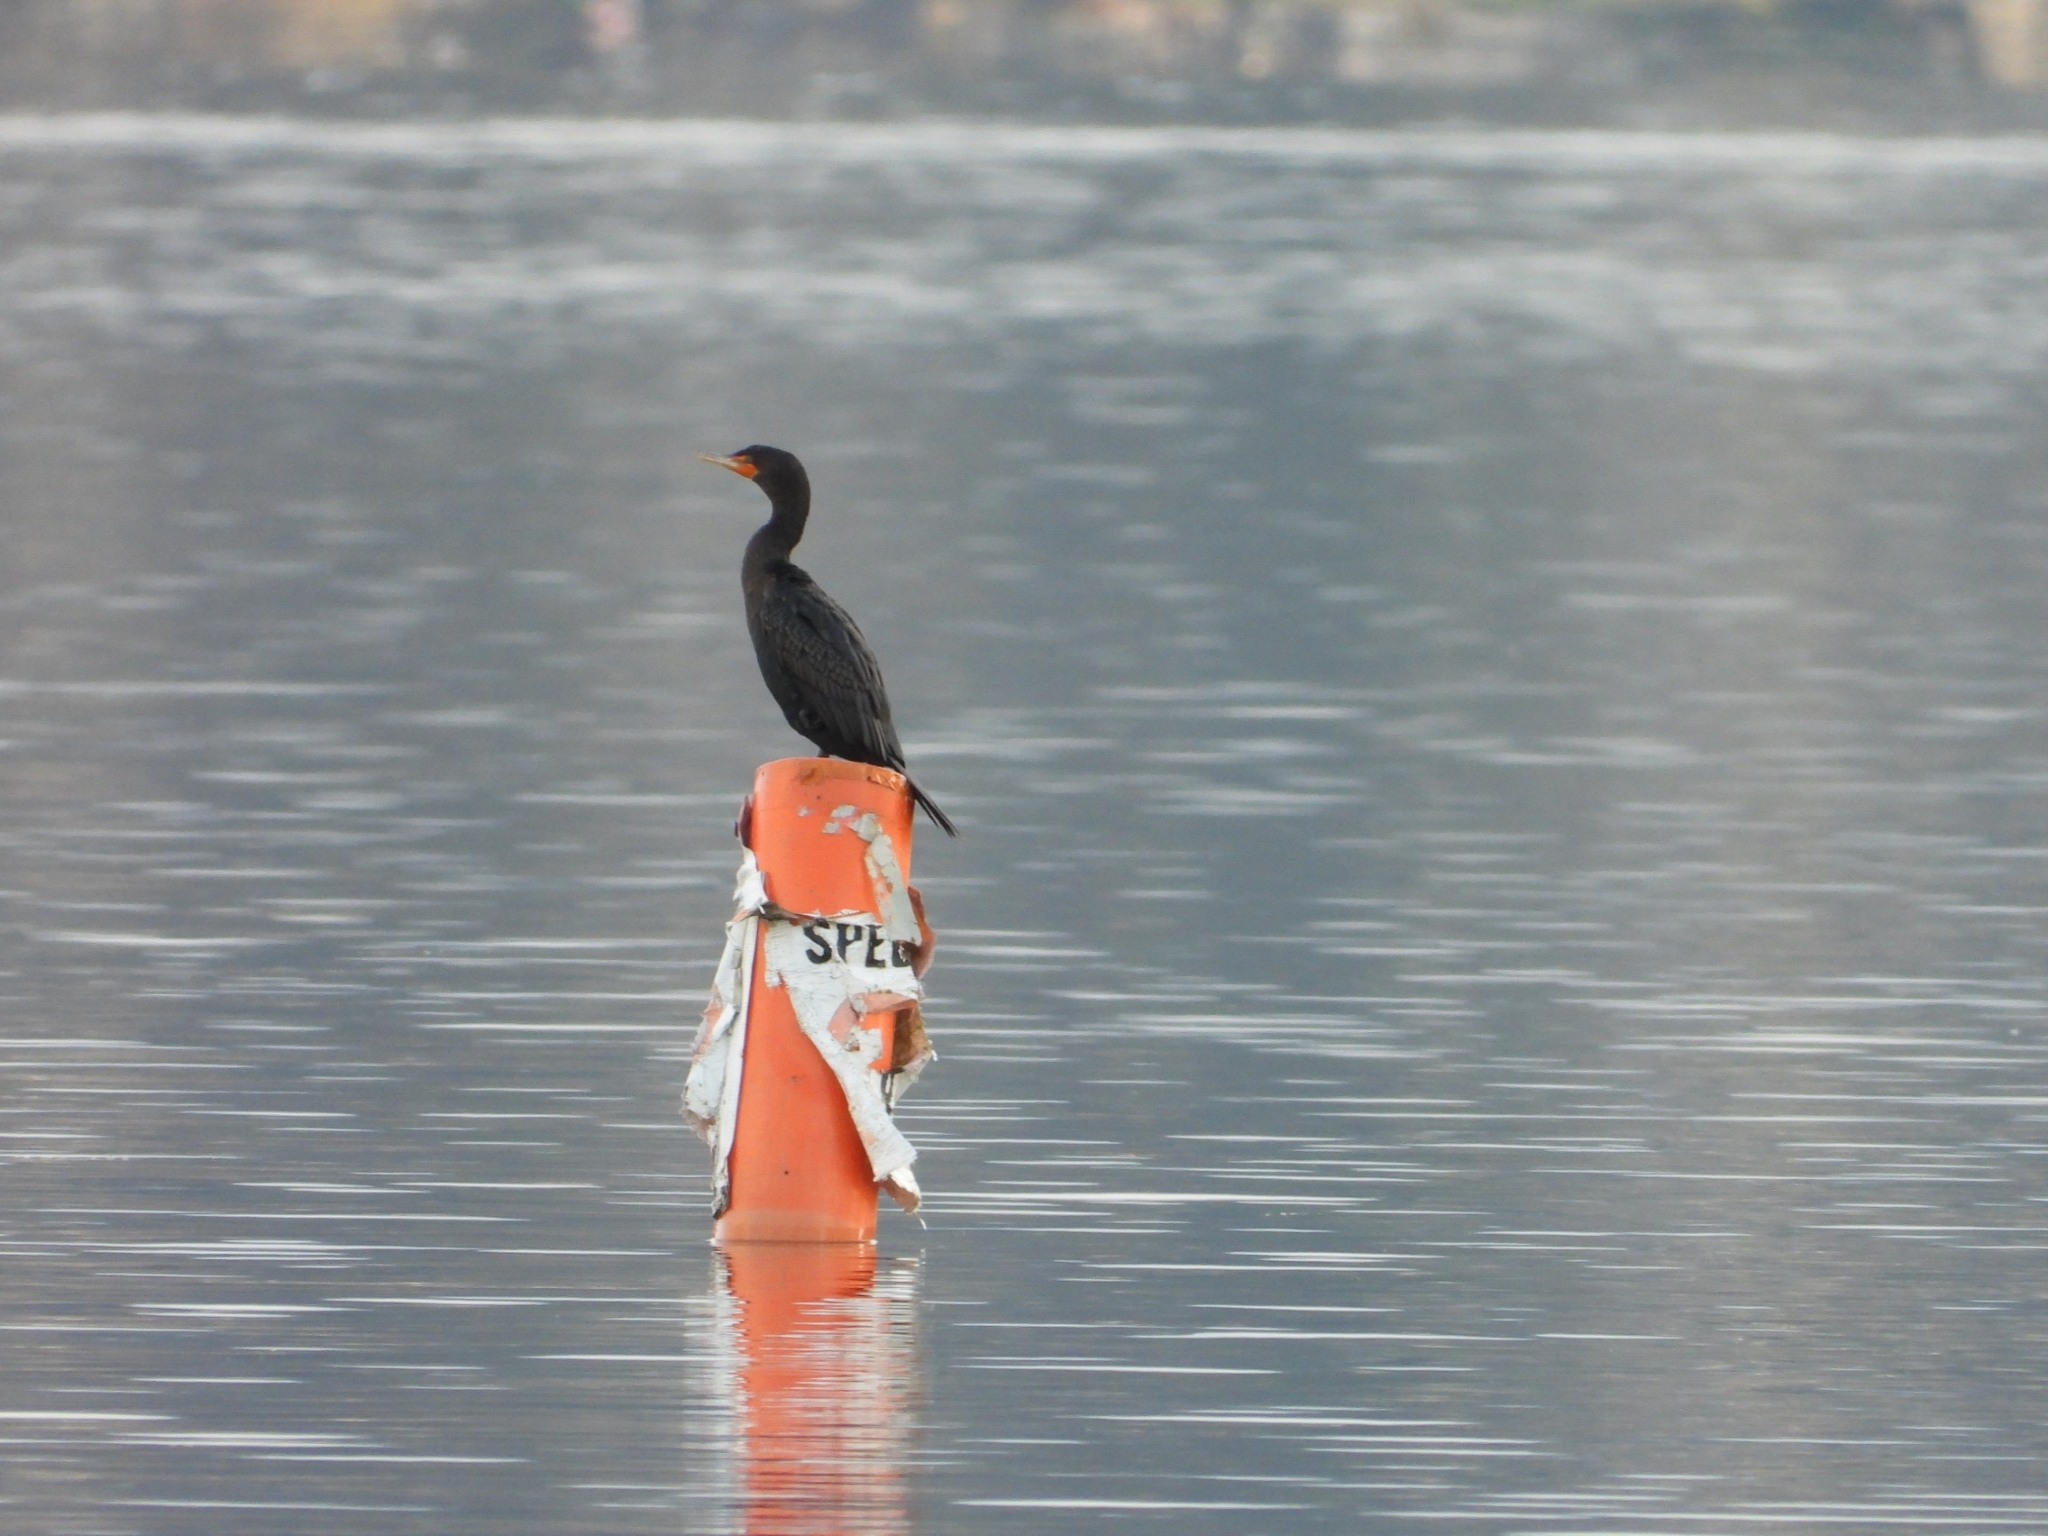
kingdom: Animalia
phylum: Chordata
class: Aves
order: Suliformes
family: Phalacrocoracidae
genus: Phalacrocorax
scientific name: Phalacrocorax auritus
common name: Double-crested cormorant
